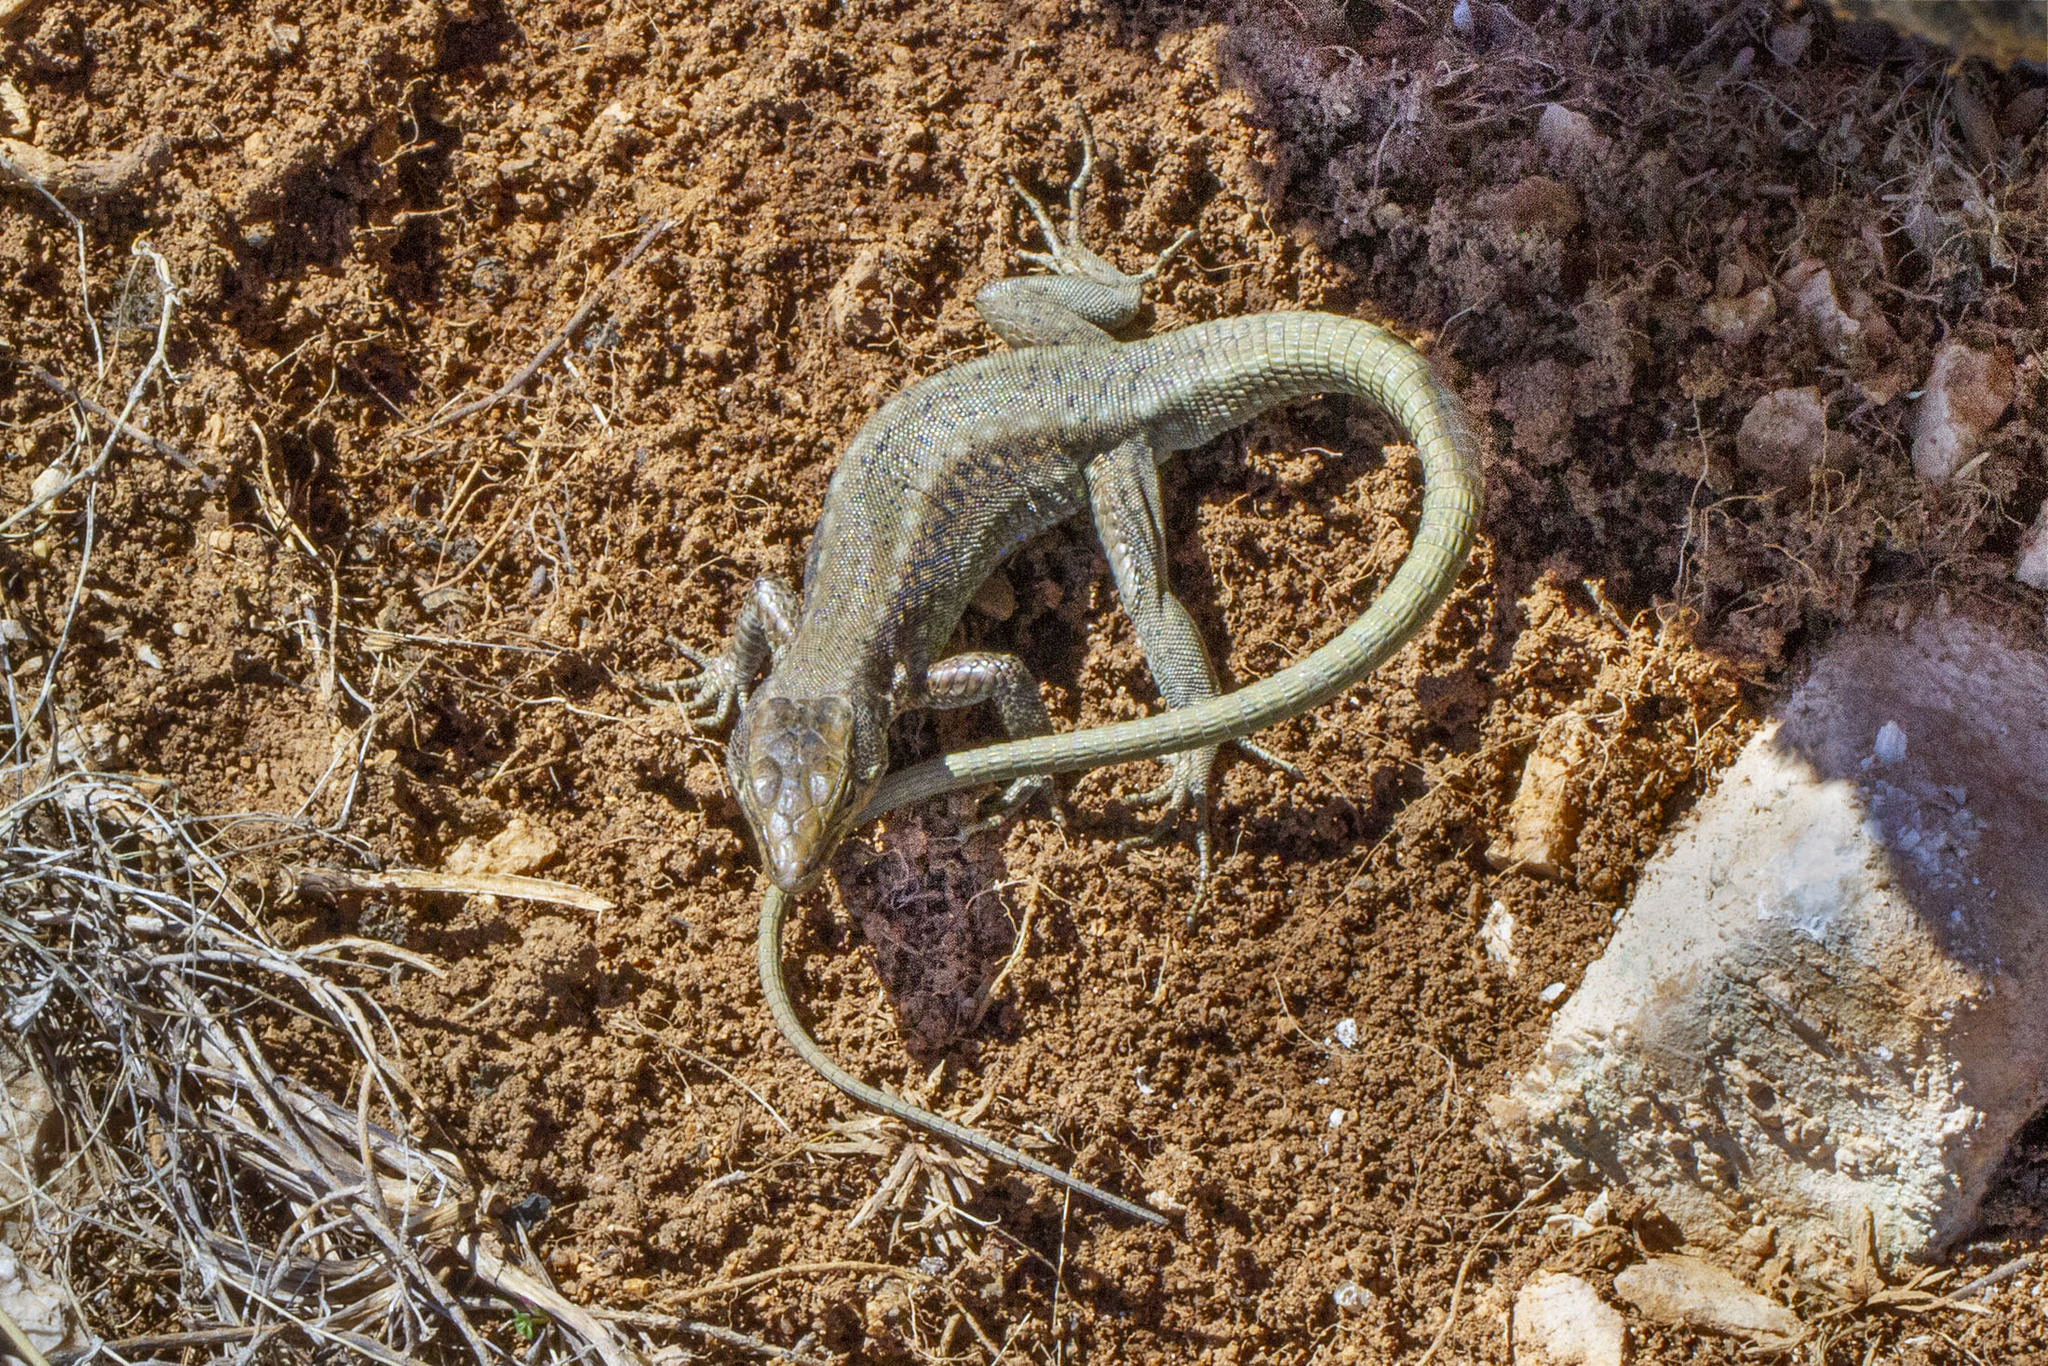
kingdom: Animalia
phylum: Chordata
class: Squamata
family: Lacertidae
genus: Anatololacerta
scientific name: Anatololacerta pelasgiana
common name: Pelasgian rock lizard
